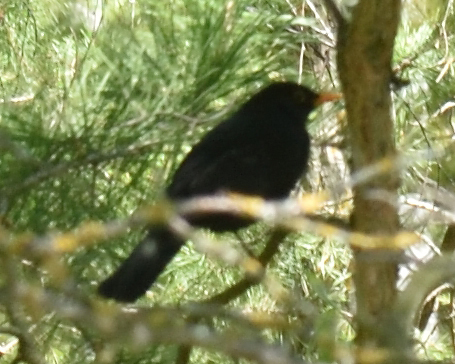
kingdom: Animalia
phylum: Chordata
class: Aves
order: Passeriformes
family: Turdidae
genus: Turdus
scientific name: Turdus merula
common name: Common blackbird
